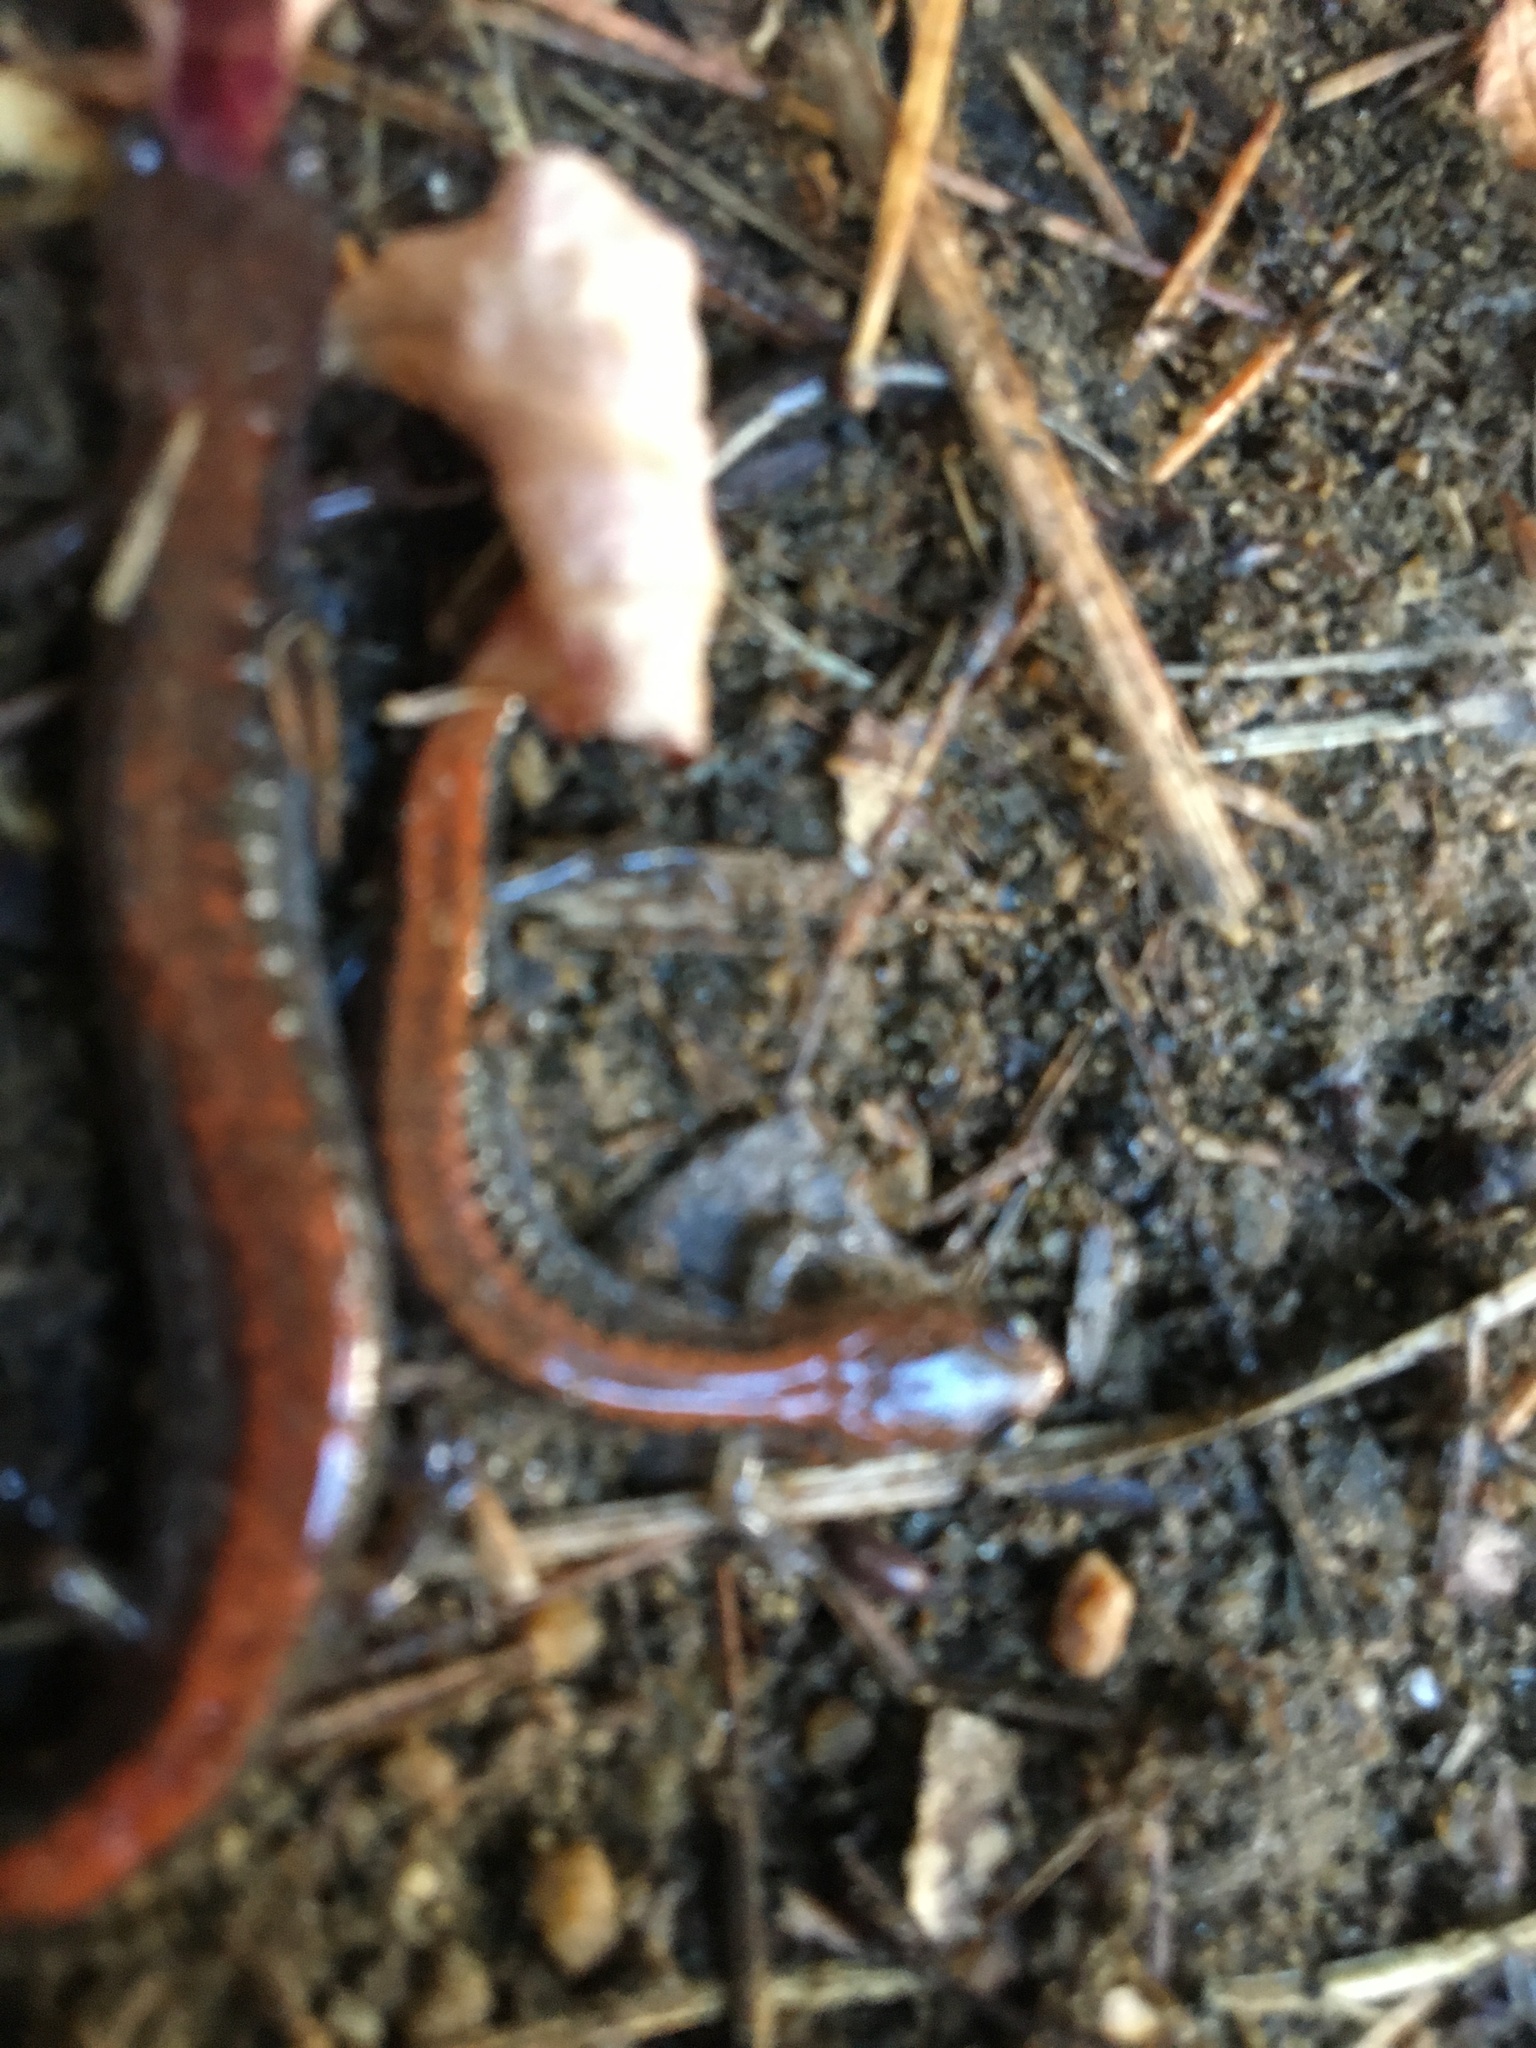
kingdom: Animalia
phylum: Chordata
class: Amphibia
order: Caudata
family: Plethodontidae
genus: Plethodon
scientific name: Plethodon cinereus
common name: Redback salamander
